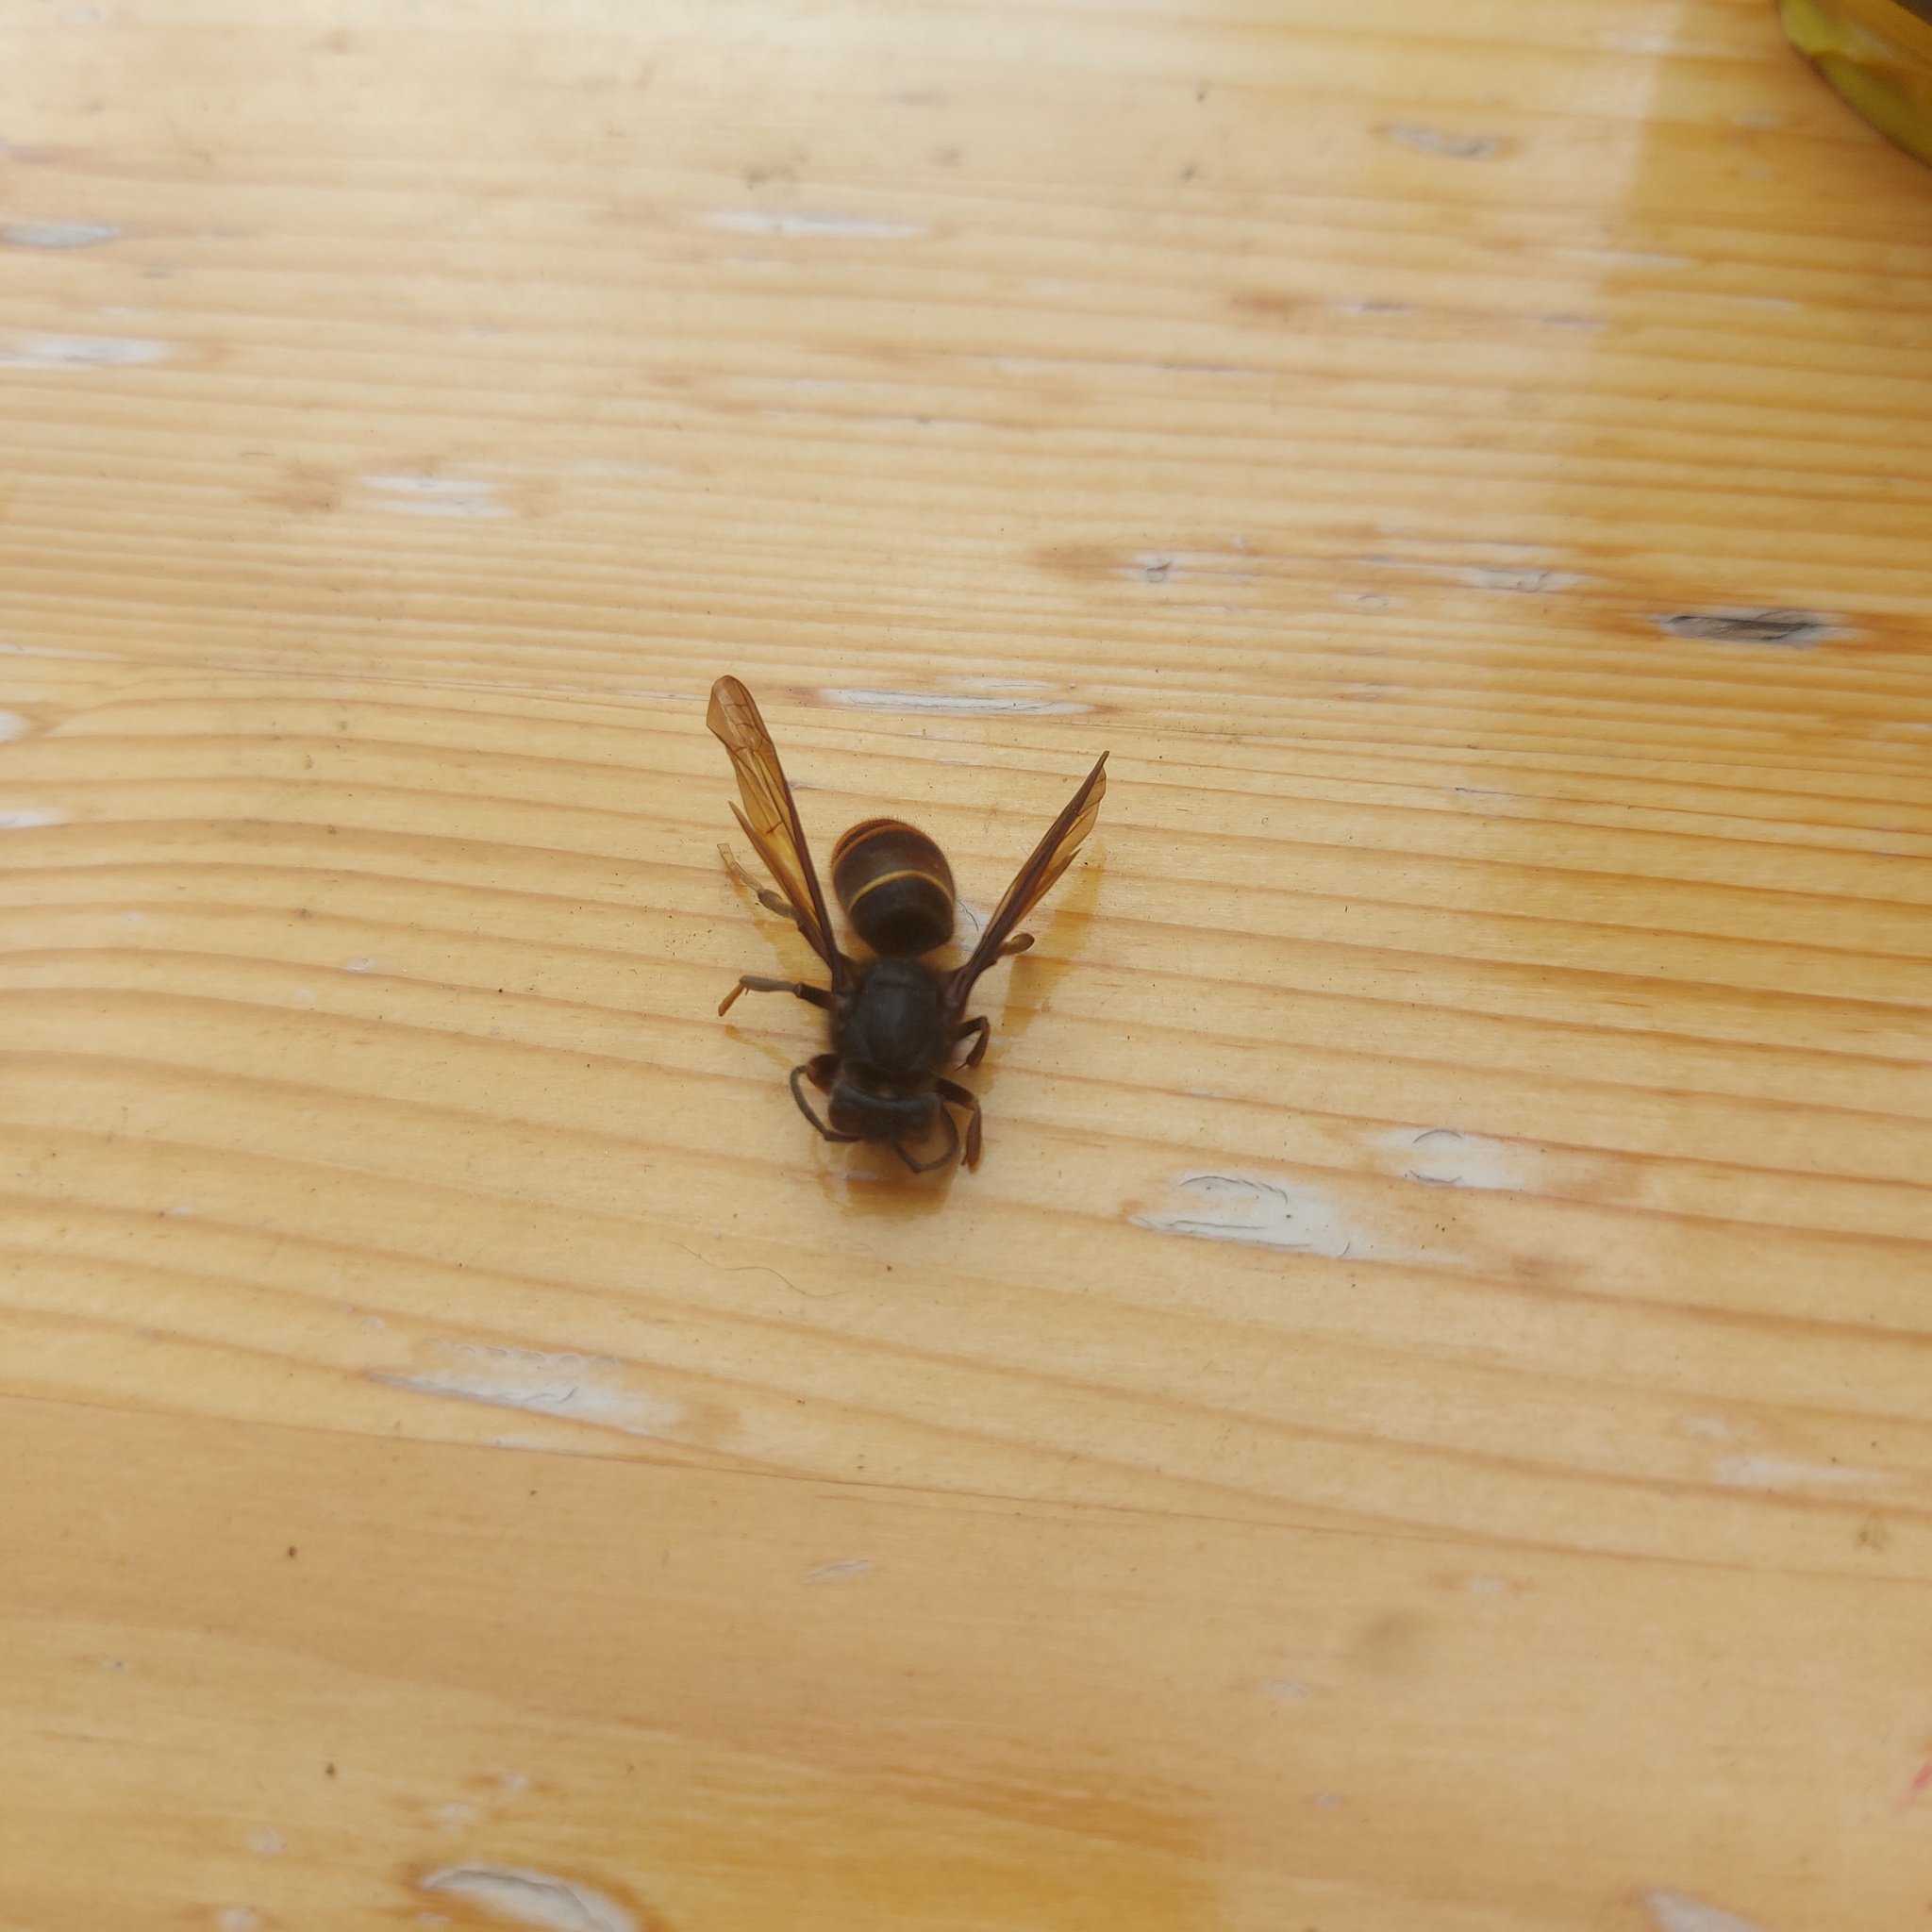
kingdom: Animalia
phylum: Arthropoda
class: Insecta
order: Hymenoptera
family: Vespidae
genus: Vespa
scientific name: Vespa velutina
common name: Asian hornet
